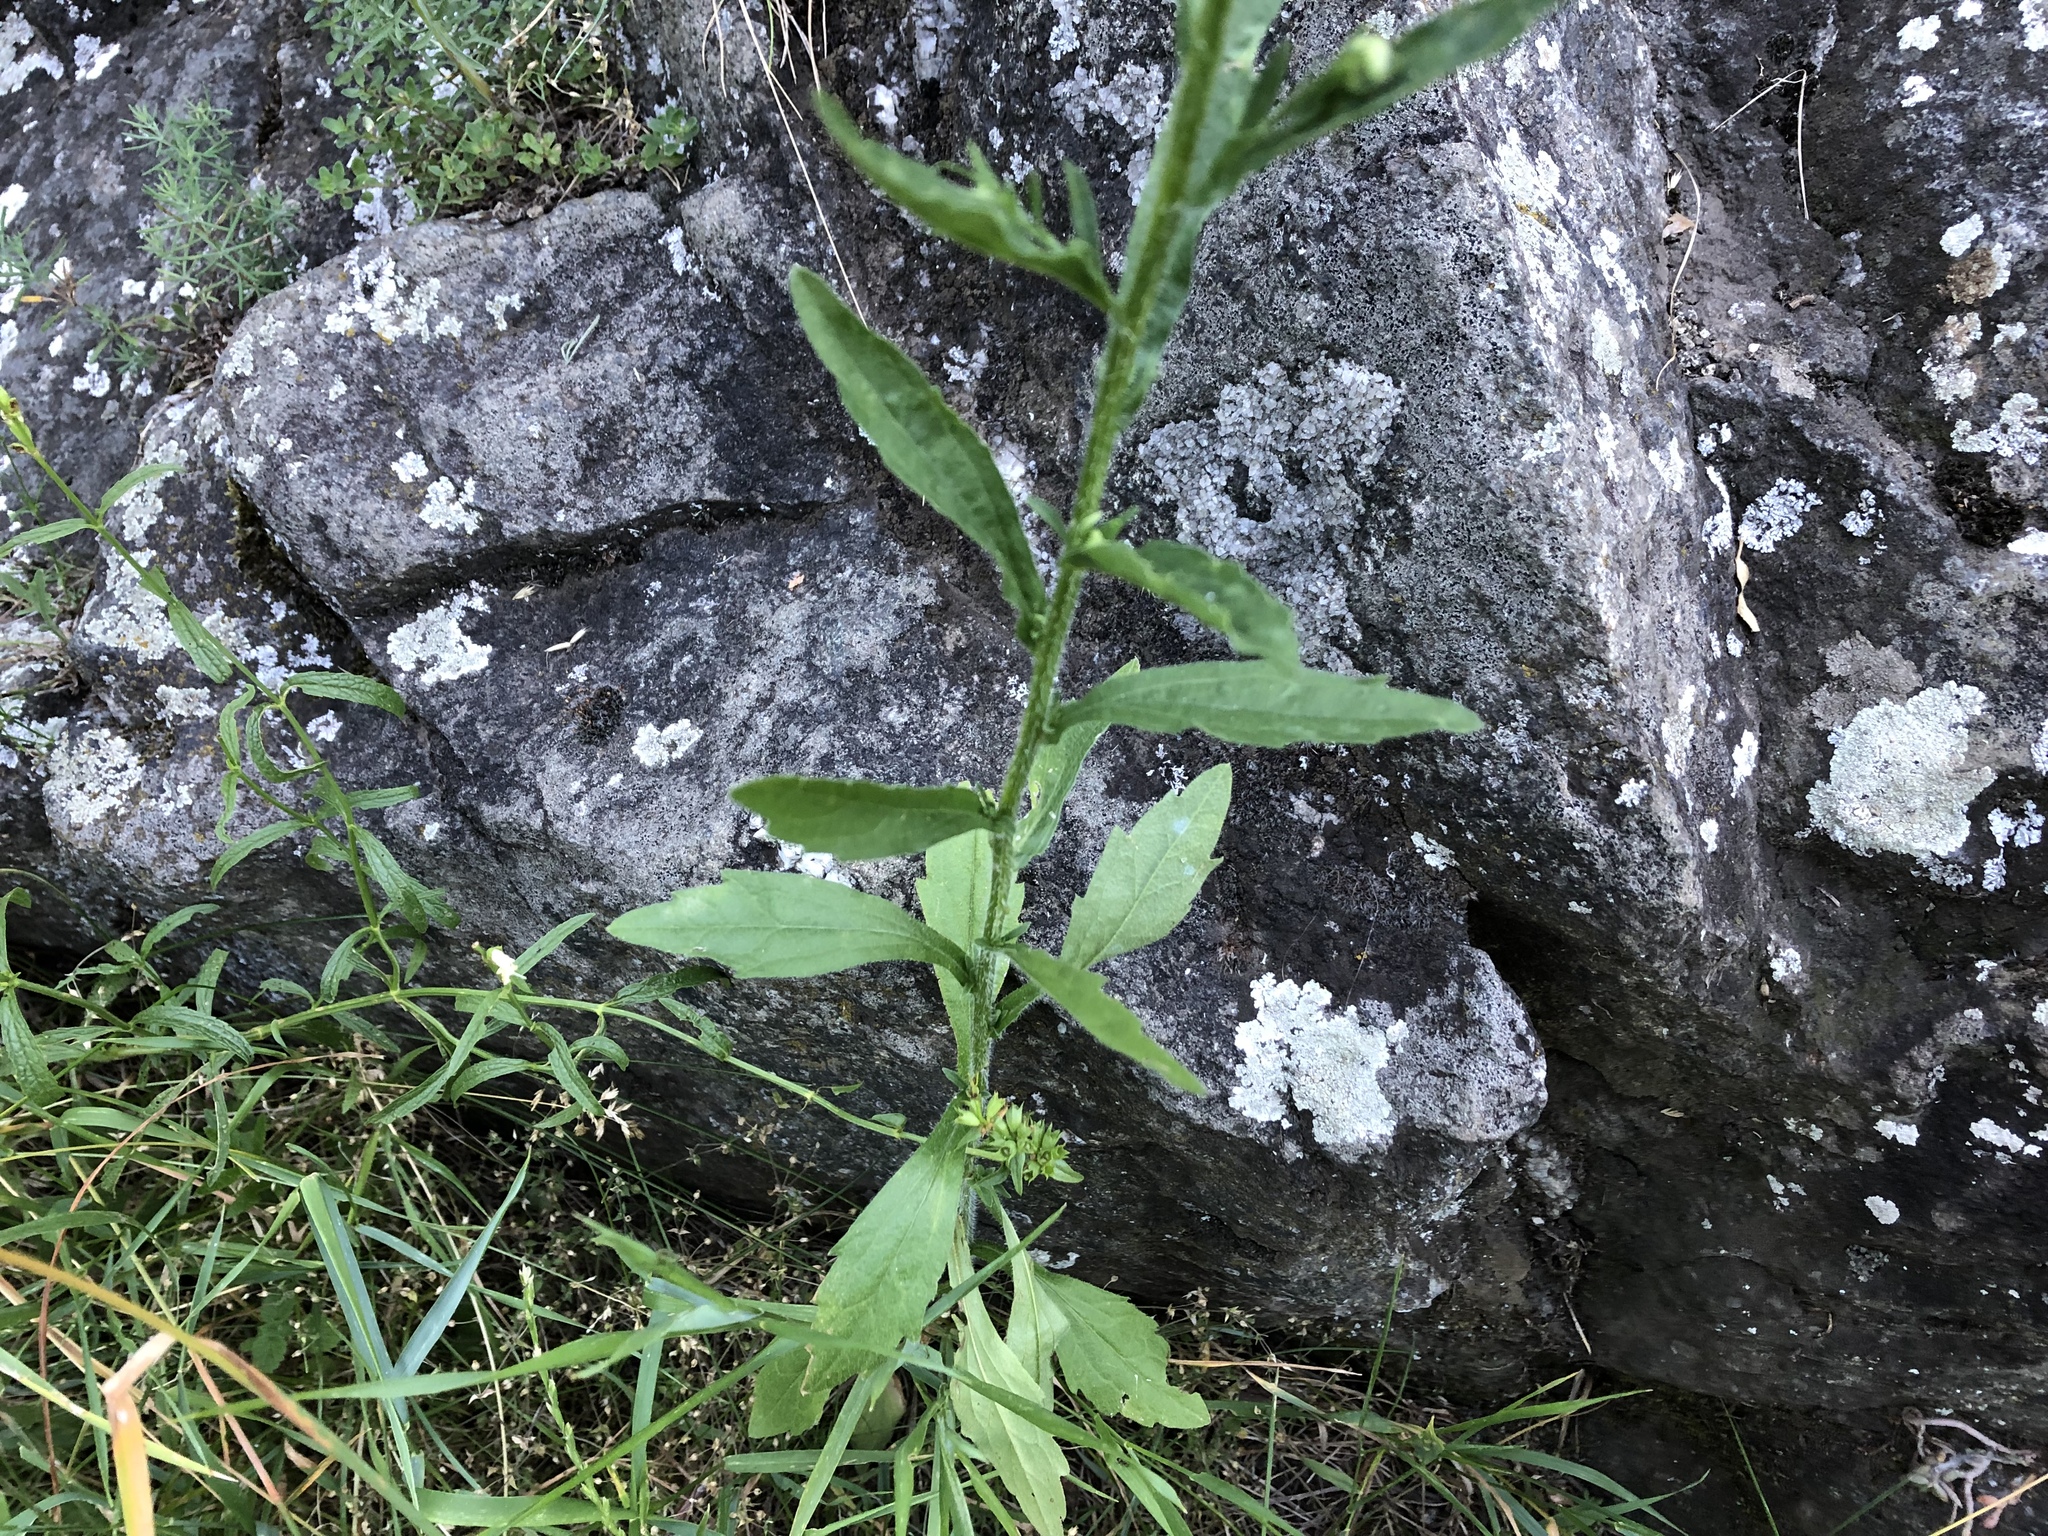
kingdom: Plantae
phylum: Tracheophyta
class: Magnoliopsida
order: Asterales
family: Asteraceae
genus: Erigeron
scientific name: Erigeron annuus
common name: Tall fleabane
